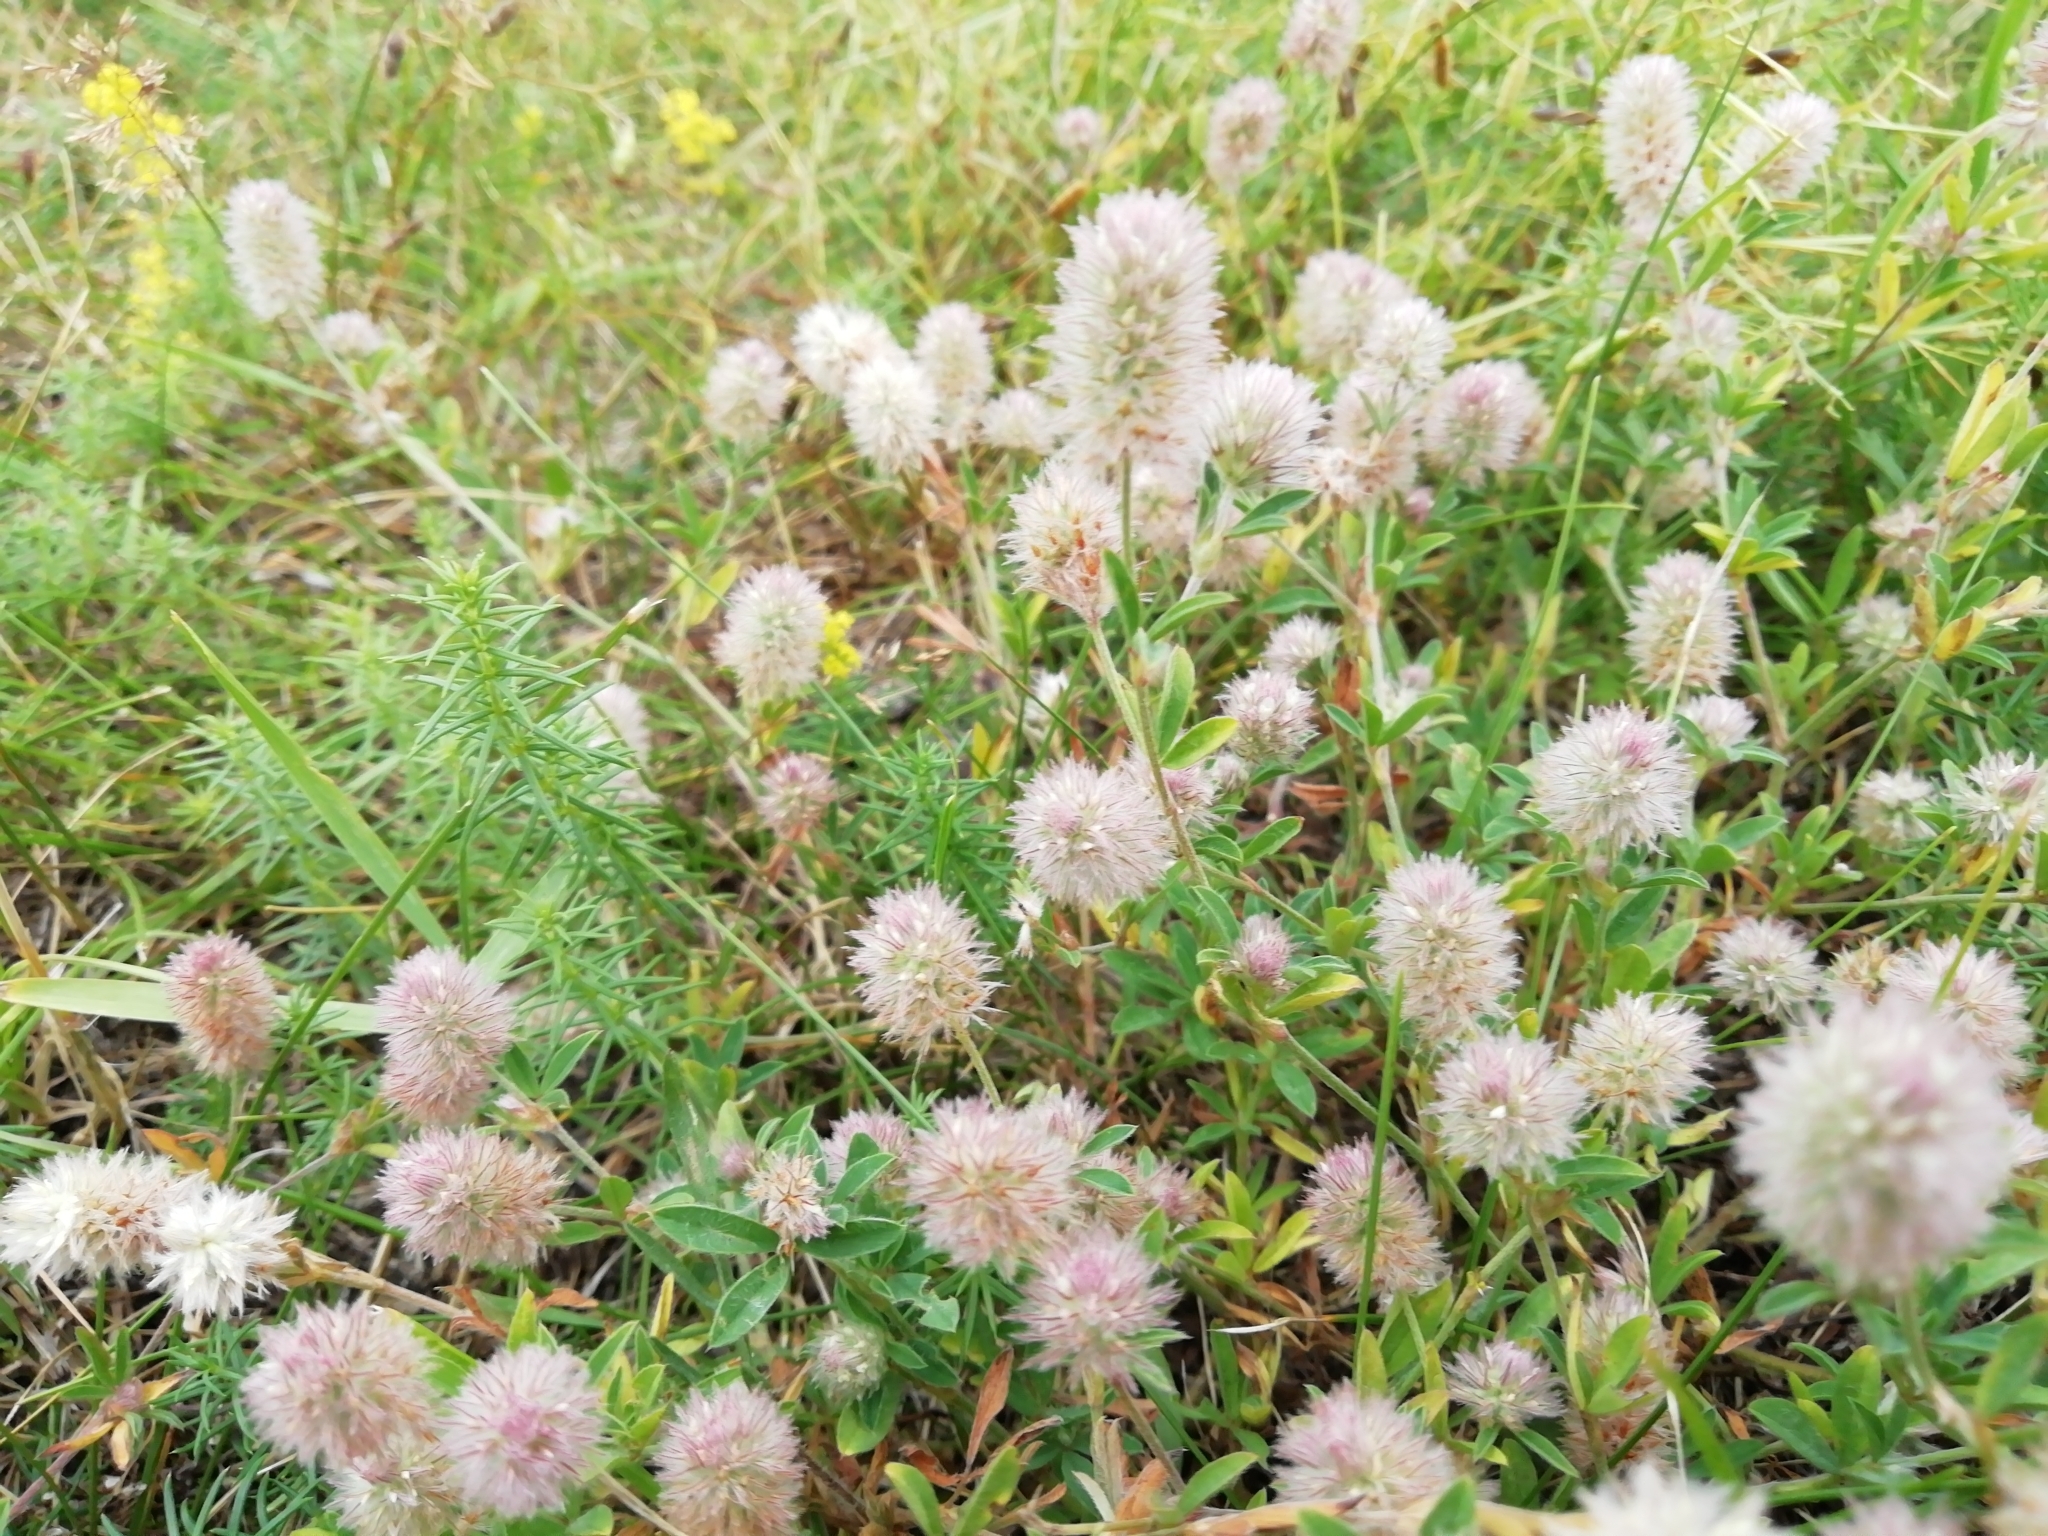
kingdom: Plantae
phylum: Tracheophyta
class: Magnoliopsida
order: Fabales
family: Fabaceae
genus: Trifolium
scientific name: Trifolium arvense
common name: Hare's-foot clover
